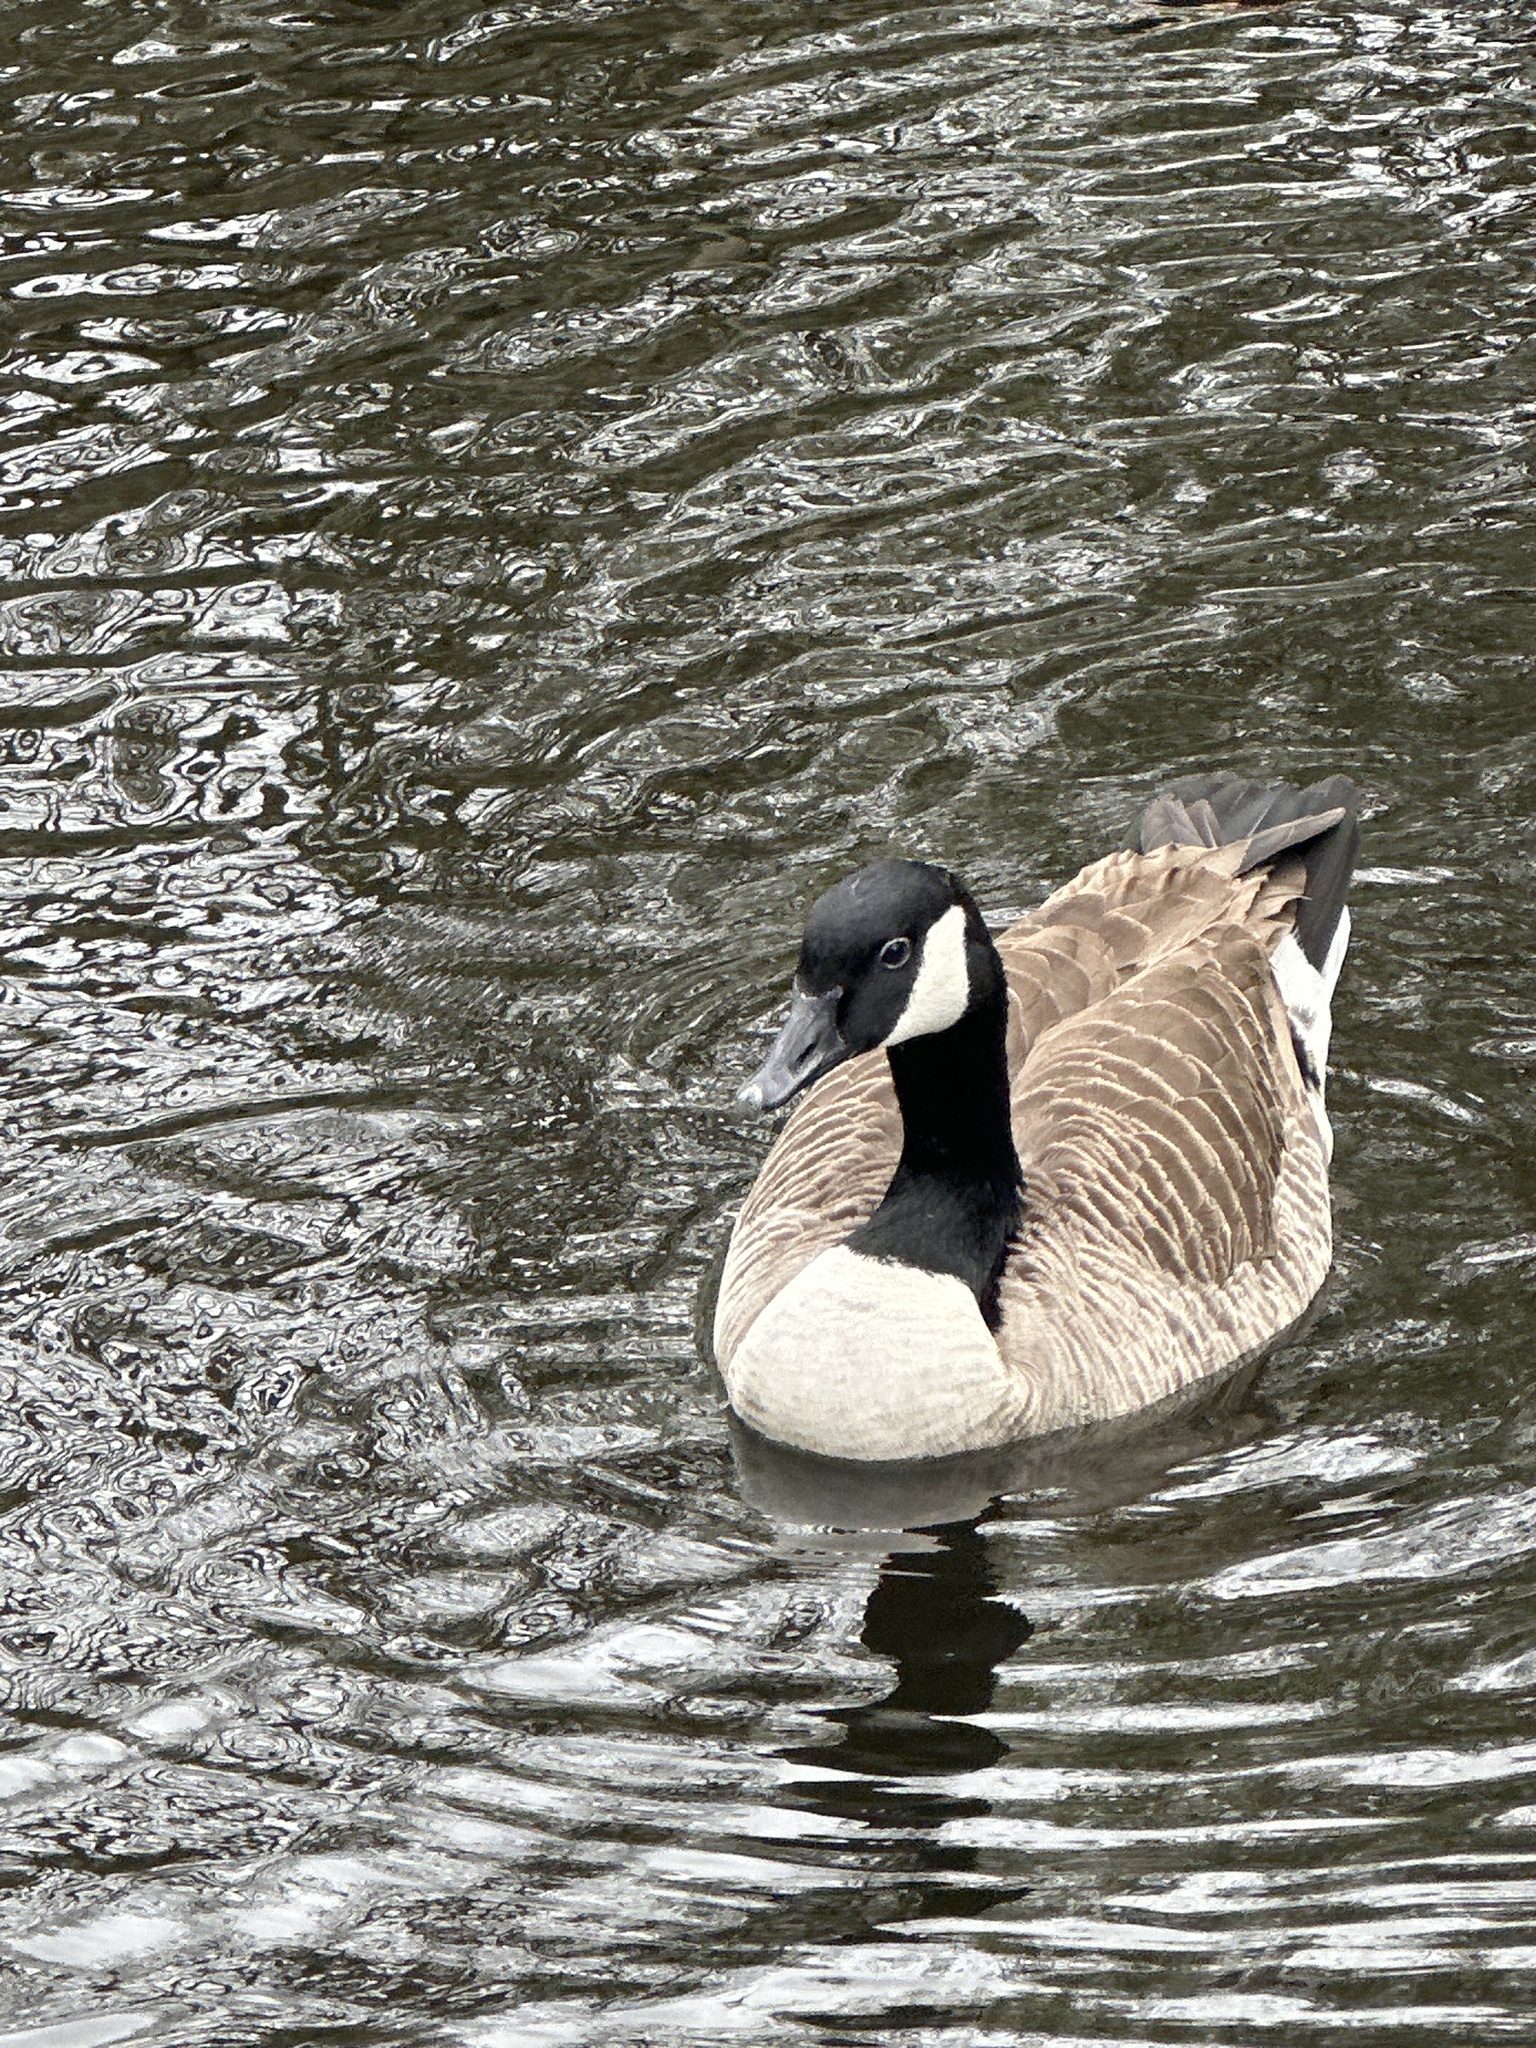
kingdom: Animalia
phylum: Chordata
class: Aves
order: Anseriformes
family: Anatidae
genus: Branta
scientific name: Branta canadensis
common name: Canada goose
